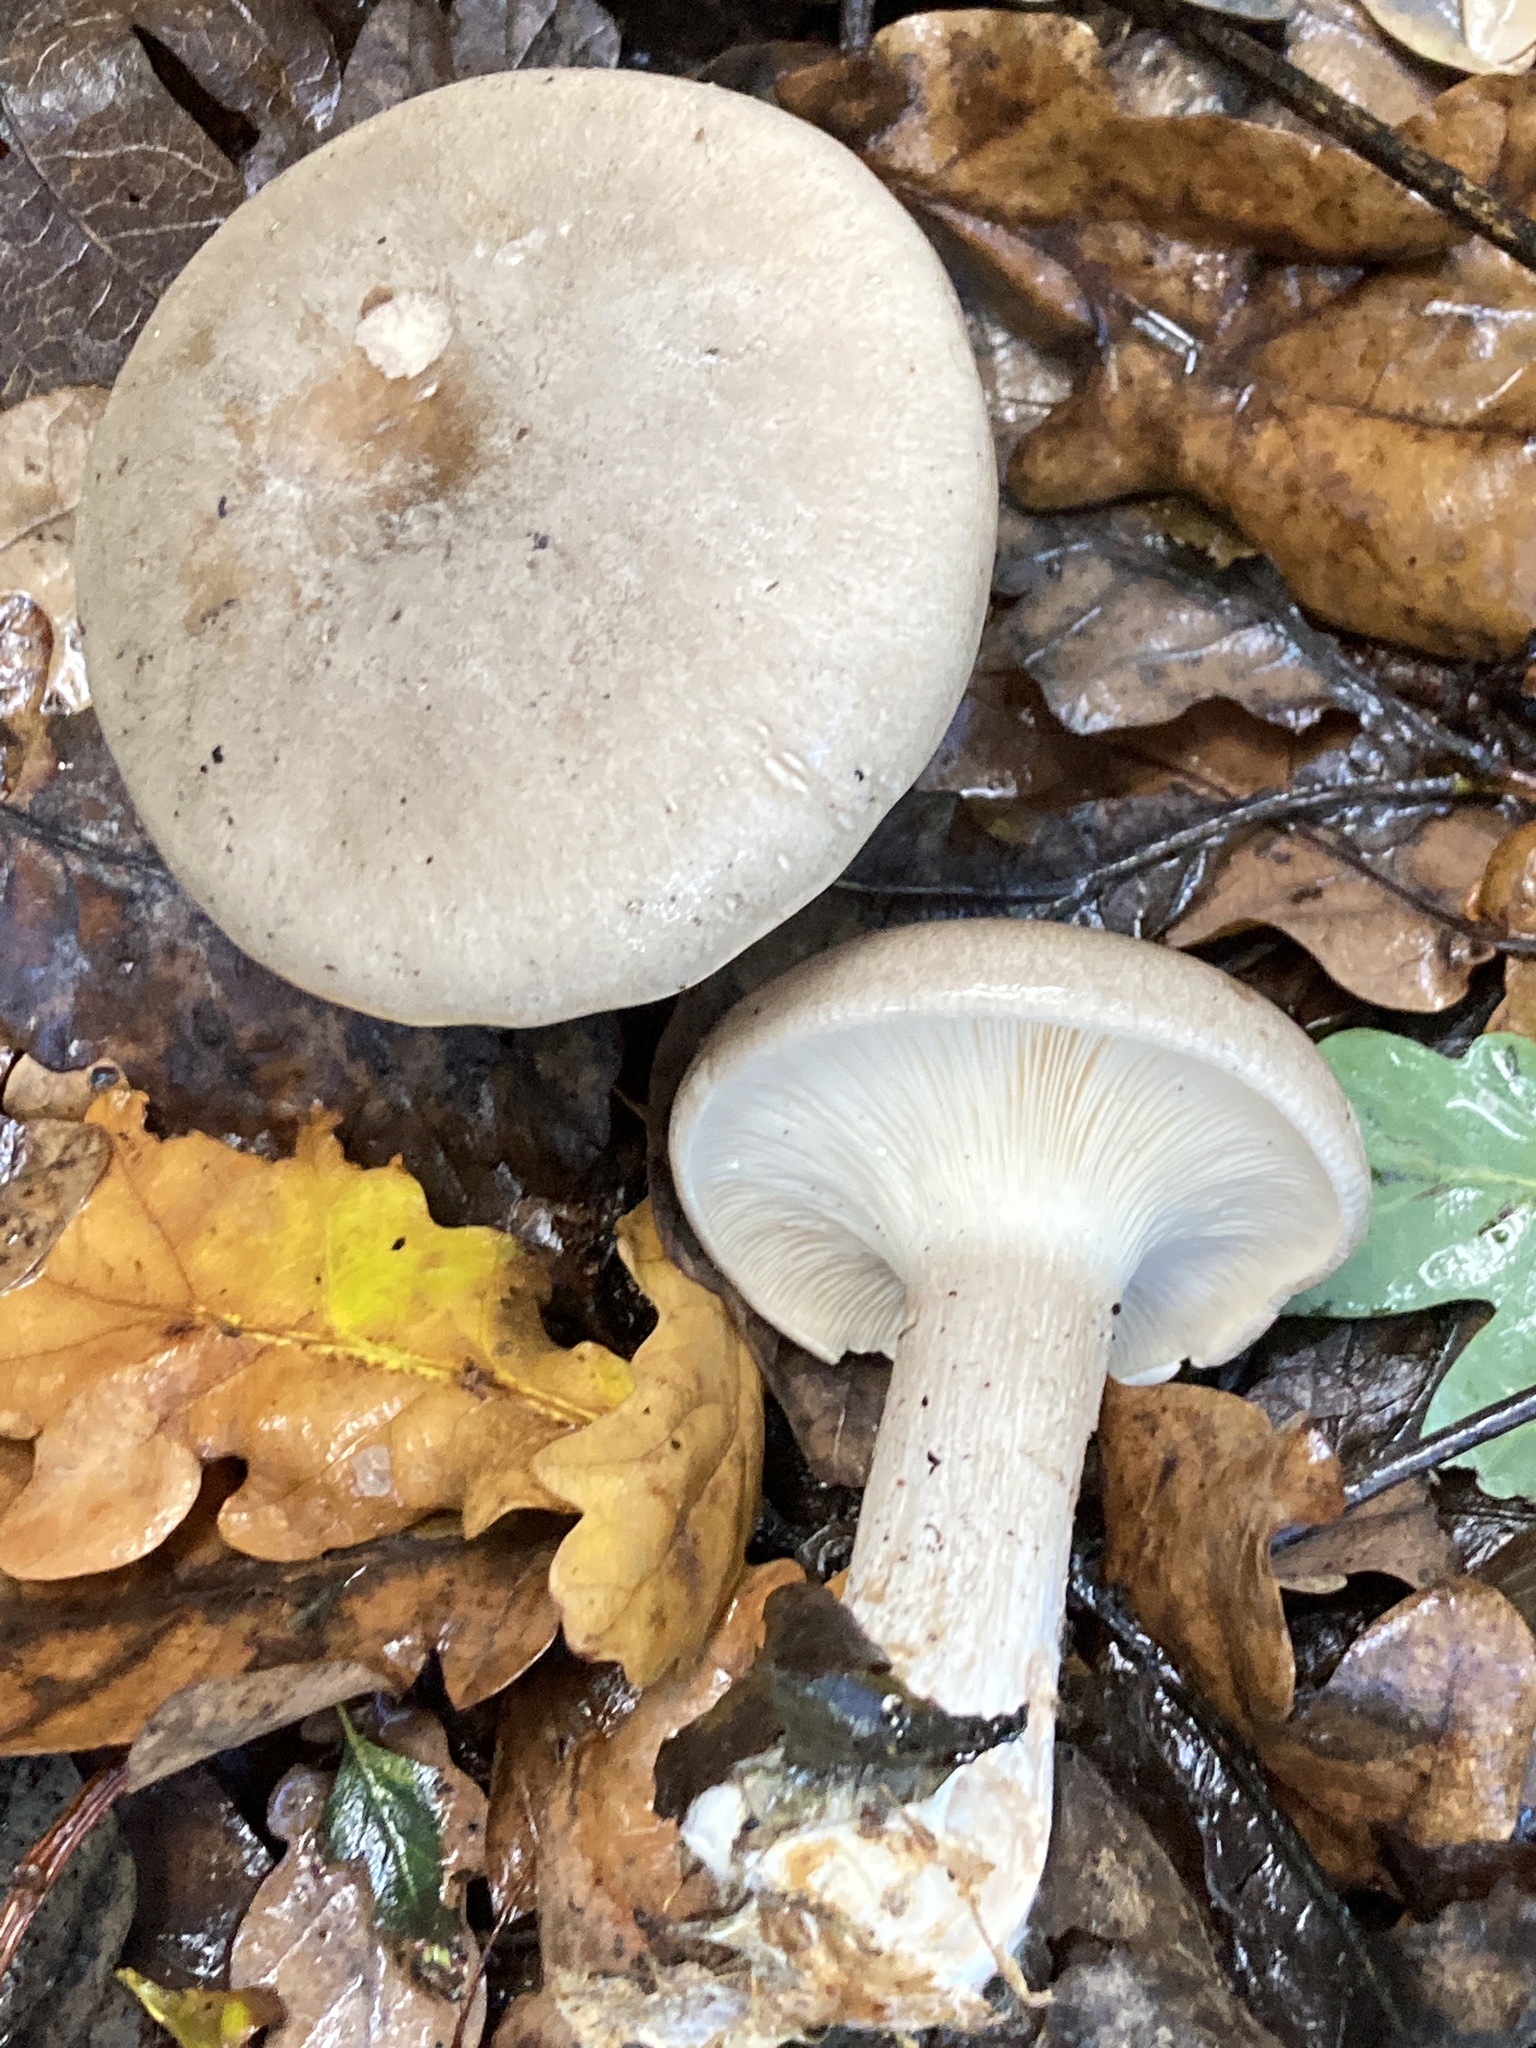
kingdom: Fungi
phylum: Basidiomycota
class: Agaricomycetes
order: Agaricales
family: Tricholomataceae
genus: Clitocybe
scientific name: Clitocybe nebularis
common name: Clouded agaric
